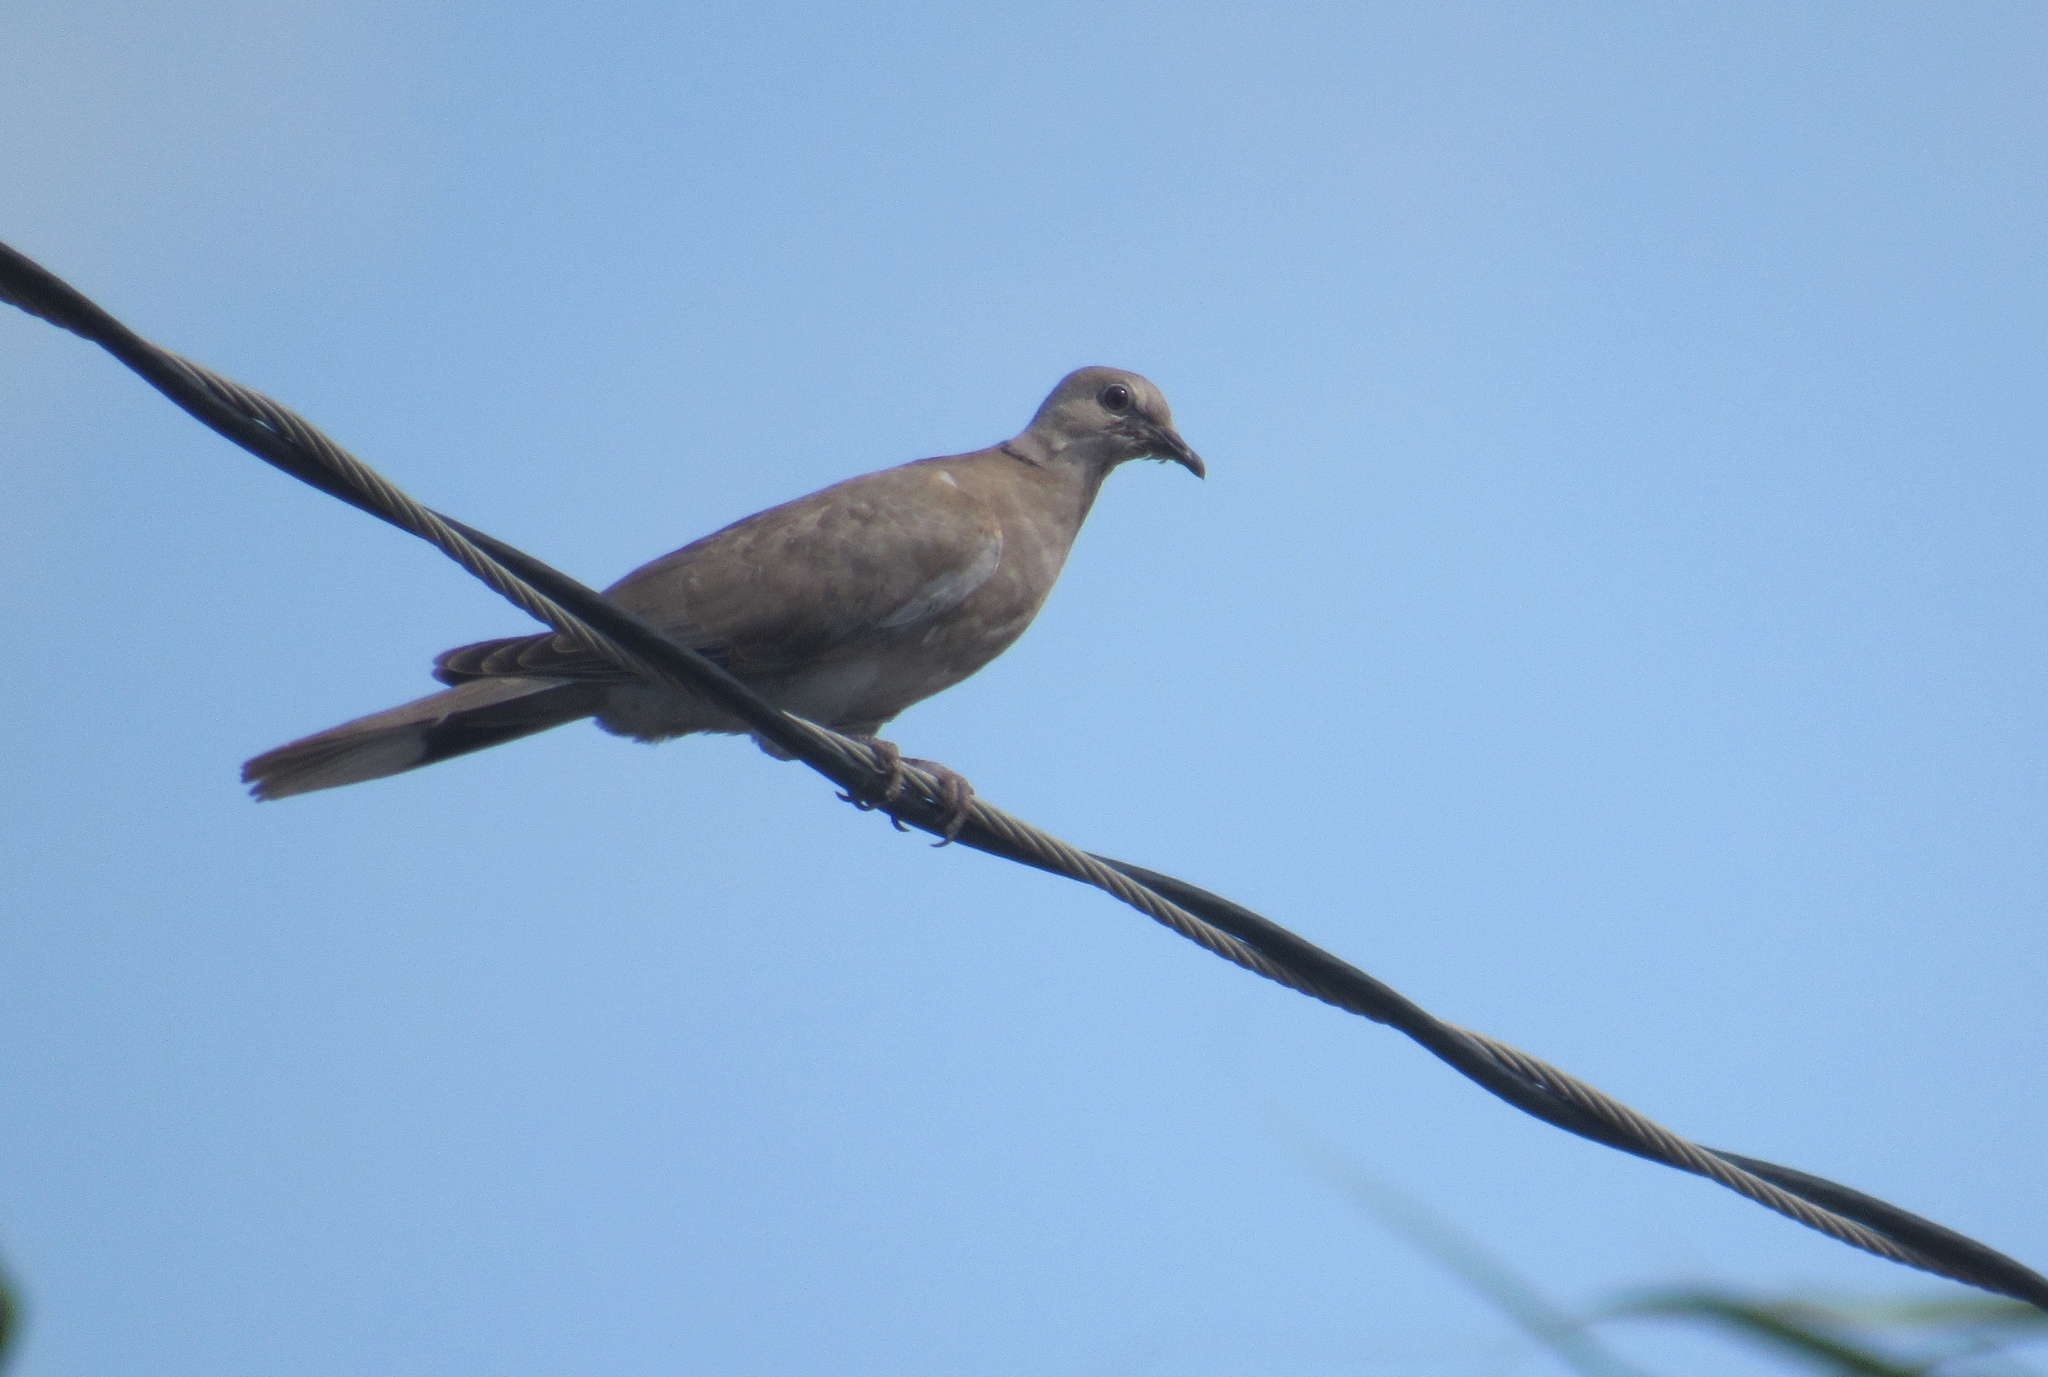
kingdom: Animalia
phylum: Chordata
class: Aves
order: Columbiformes
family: Columbidae
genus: Streptopelia
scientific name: Streptopelia decaocto
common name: Eurasian collared dove
